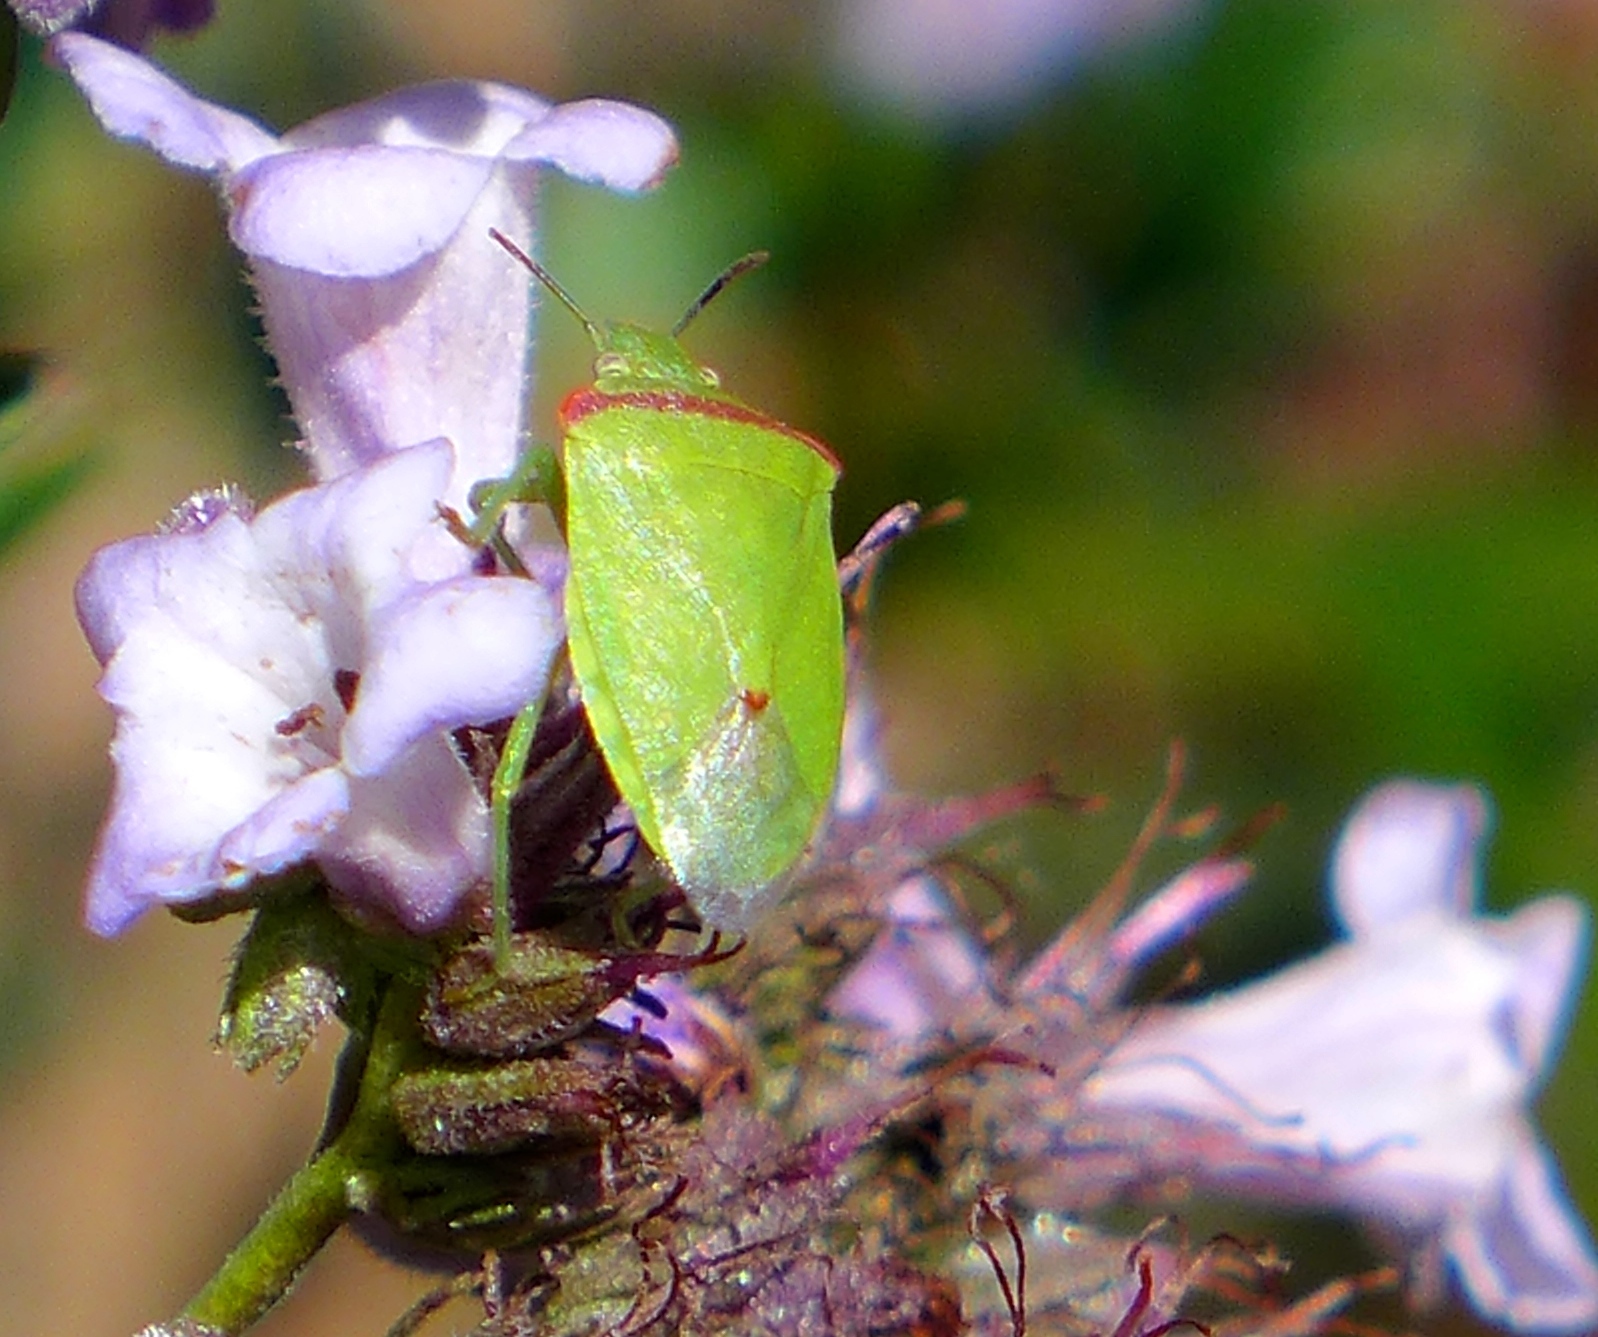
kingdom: Animalia
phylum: Arthropoda
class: Insecta
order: Hemiptera
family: Pentatomidae
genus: Thyanta
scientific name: Thyanta custator
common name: Stink bug
